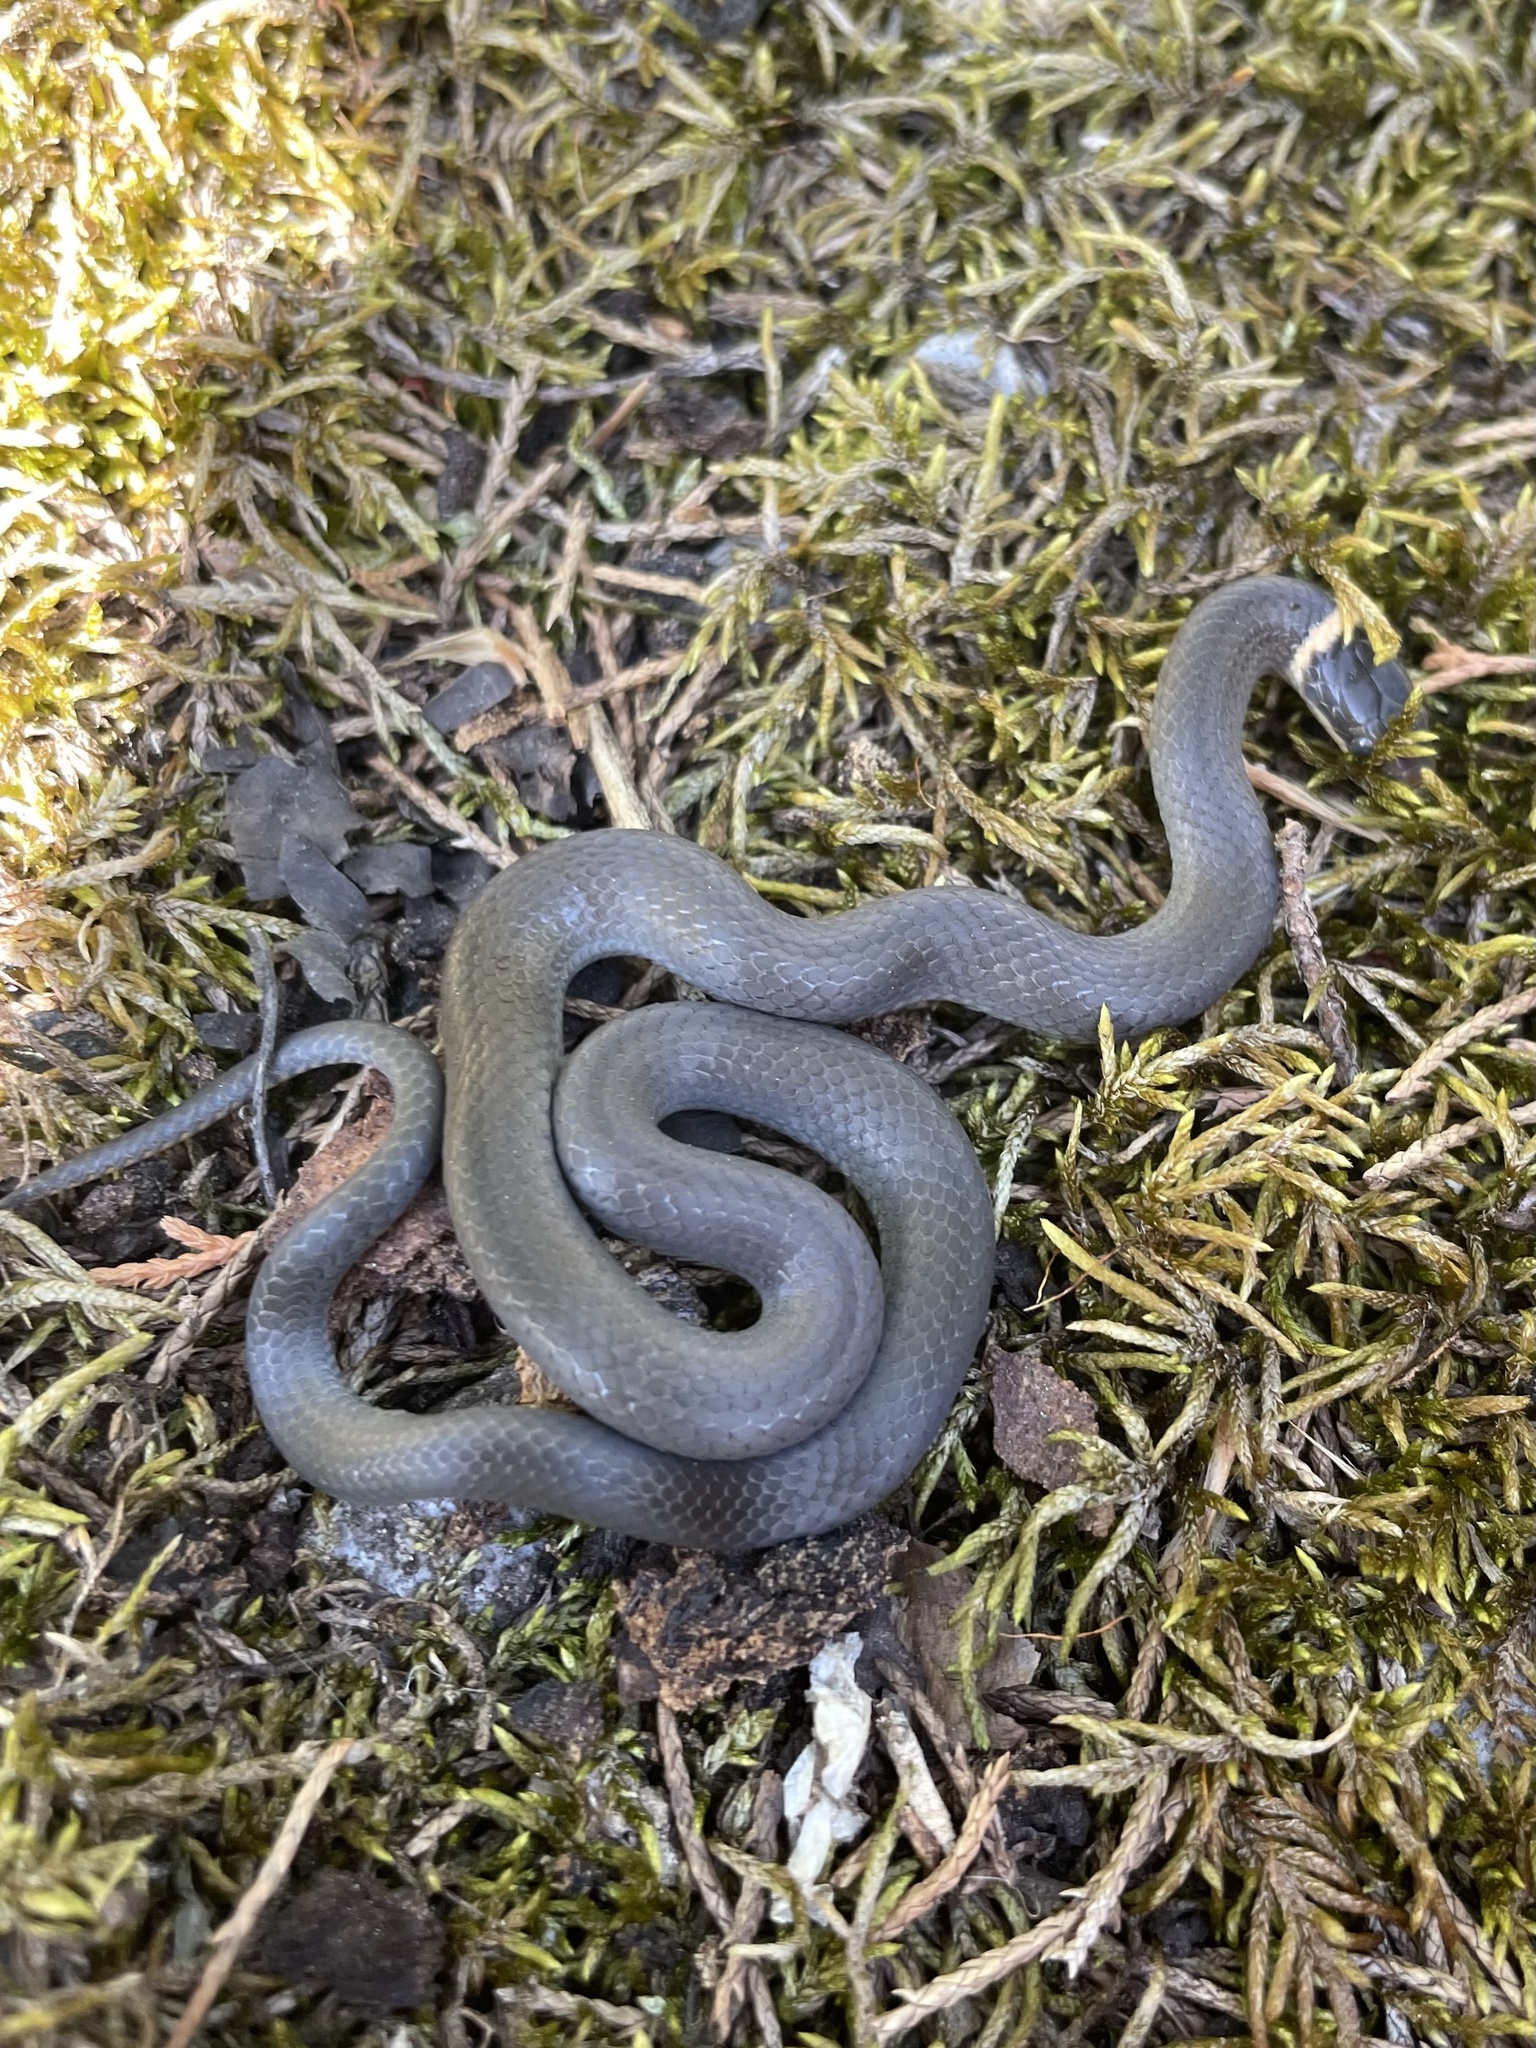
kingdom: Animalia
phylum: Chordata
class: Squamata
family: Colubridae
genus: Diadophis
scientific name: Diadophis punctatus
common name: Ringneck snake
